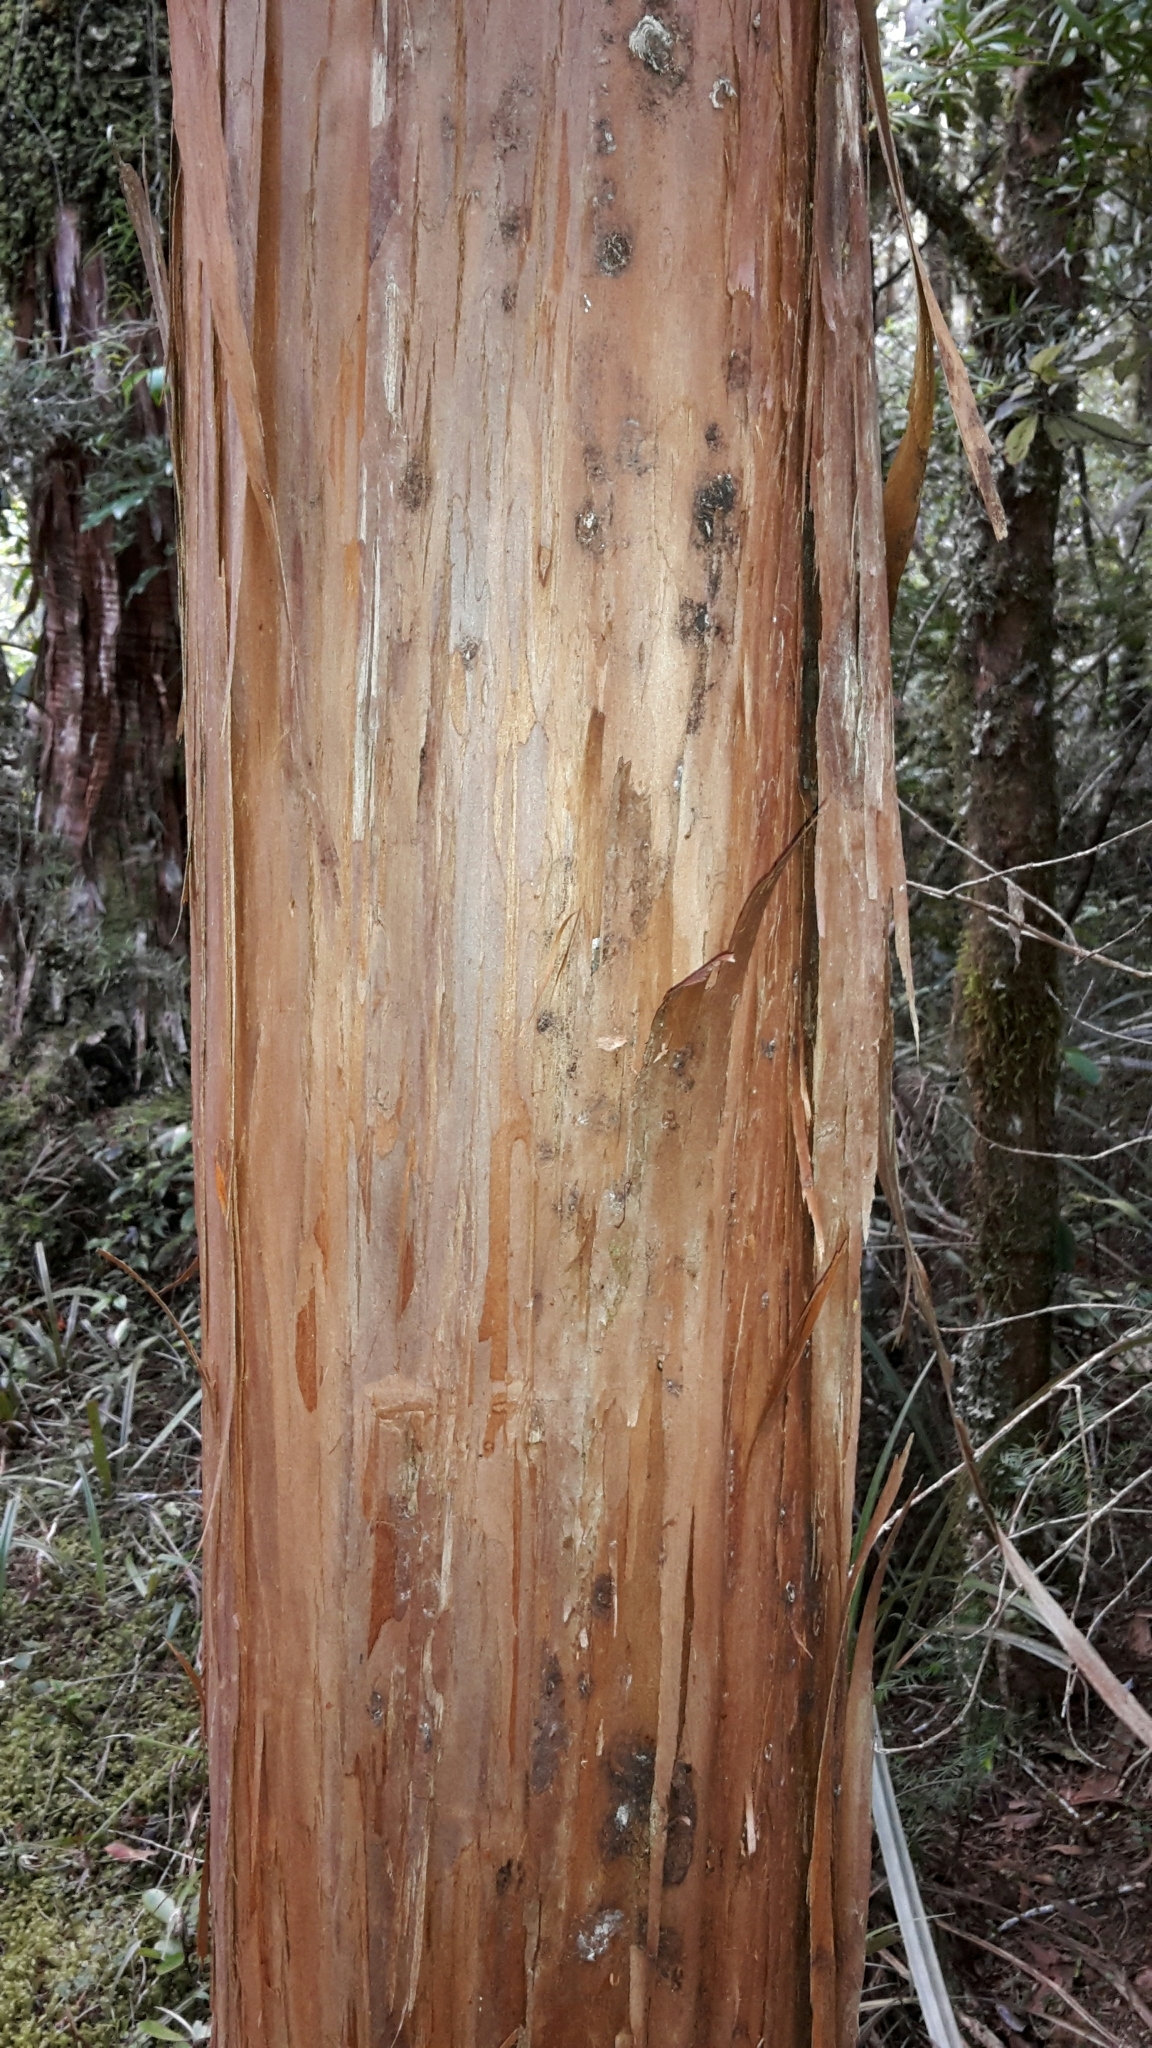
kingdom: Plantae
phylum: Tracheophyta
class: Pinopsida
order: Pinales
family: Podocarpaceae
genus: Manoao
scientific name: Manoao colensoi
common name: Silver pine
